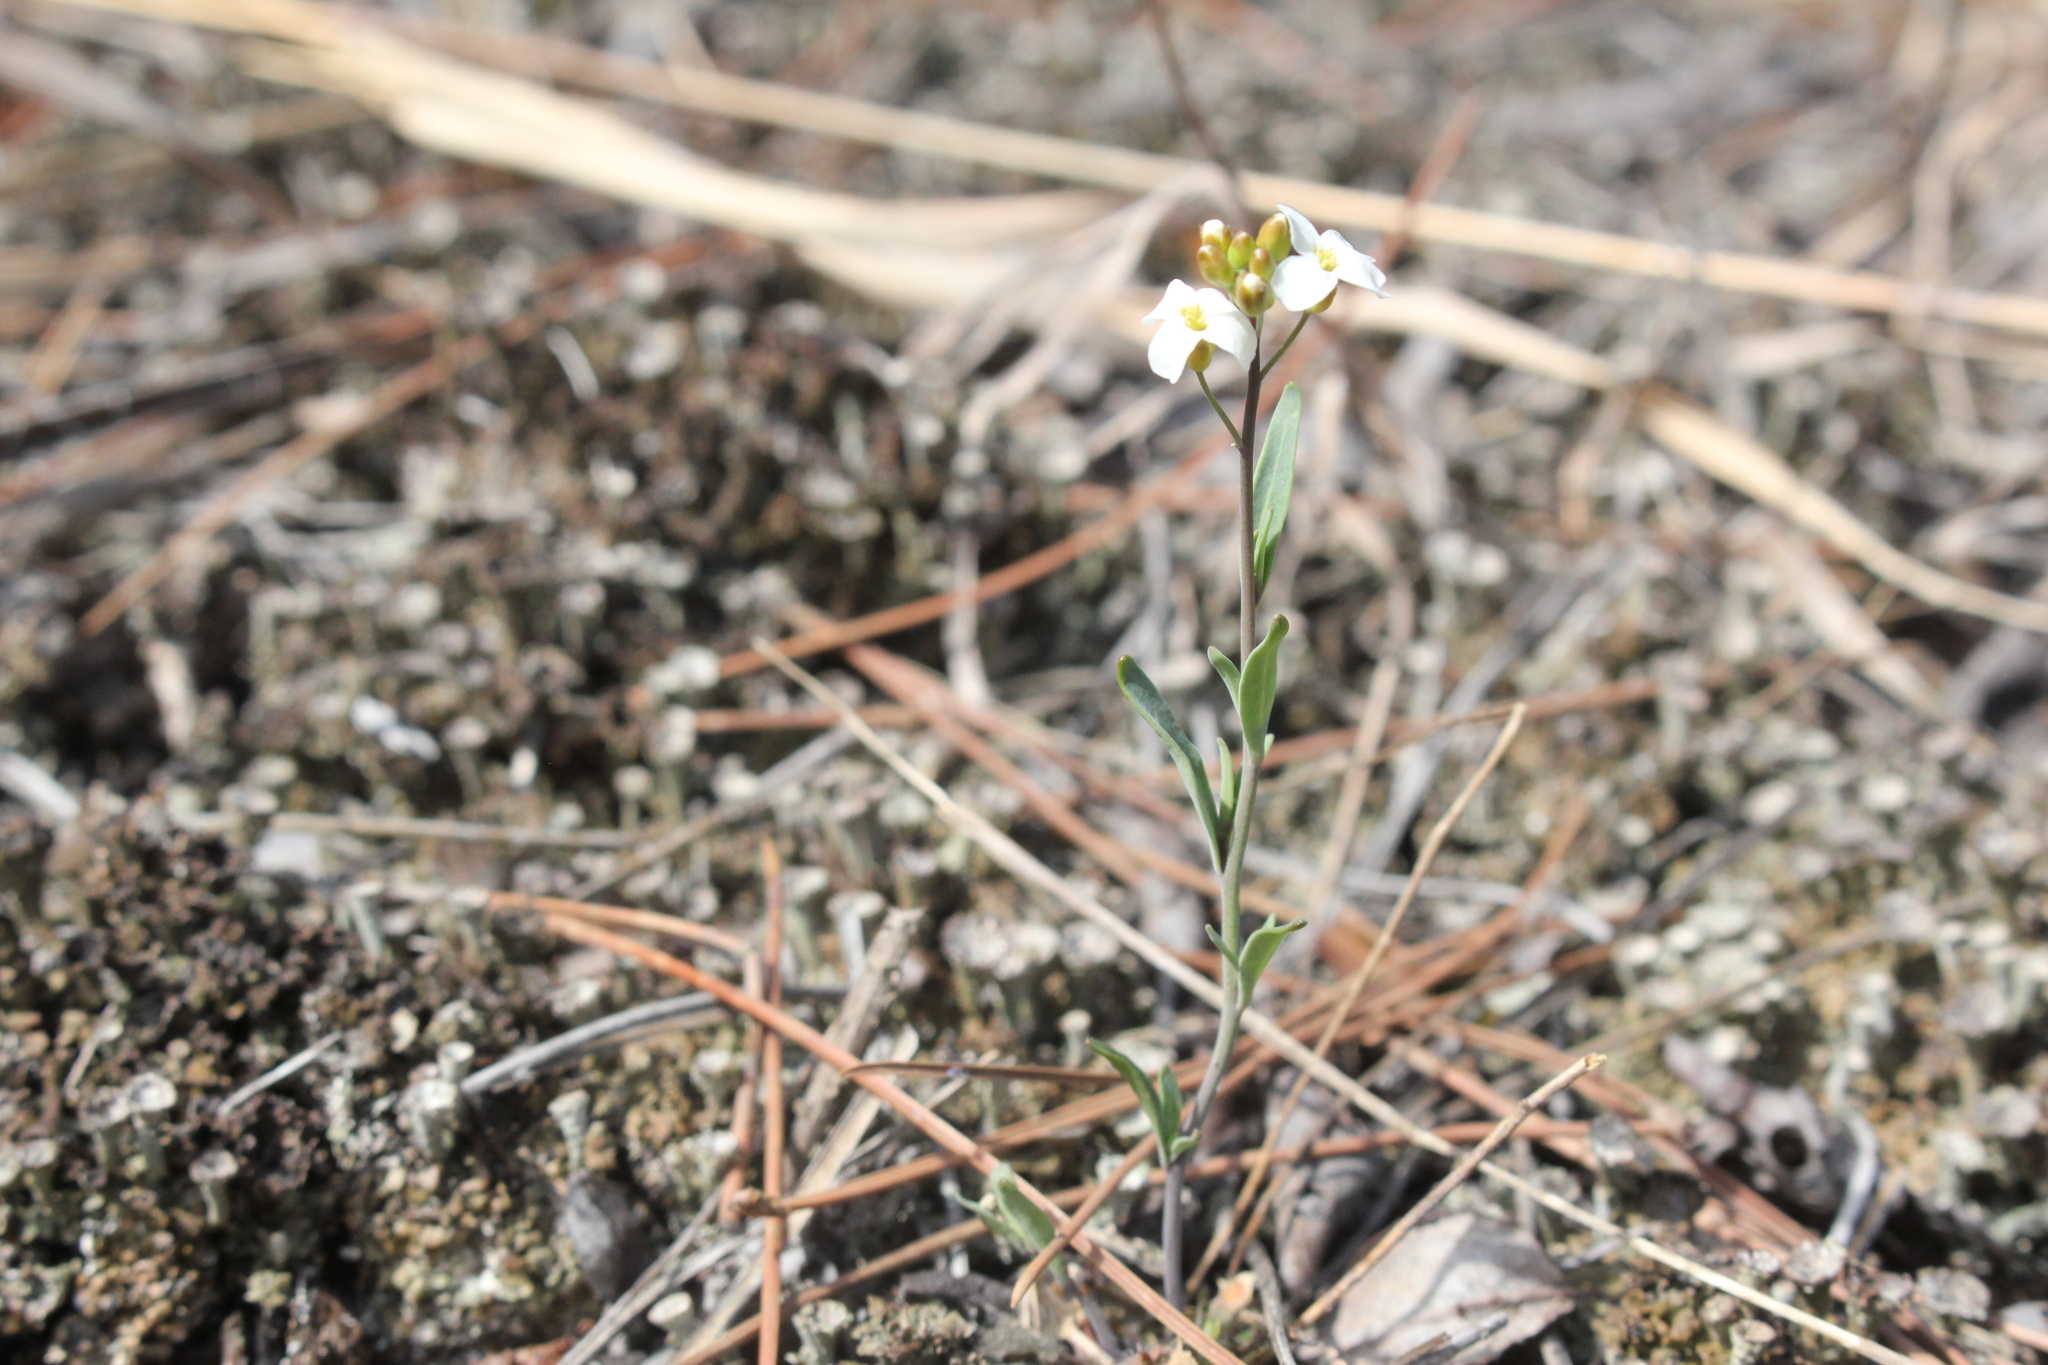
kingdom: Plantae
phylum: Tracheophyta
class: Magnoliopsida
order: Brassicales
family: Brassicaceae
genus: Arabidopsis
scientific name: Arabidopsis lyrata
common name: Lyrate rockcress
